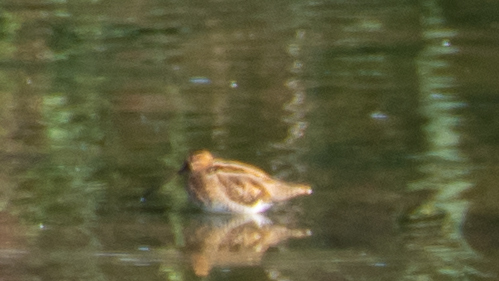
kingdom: Animalia
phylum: Chordata
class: Aves
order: Charadriiformes
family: Scolopacidae
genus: Gallinago
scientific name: Gallinago gallinago
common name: Common snipe
